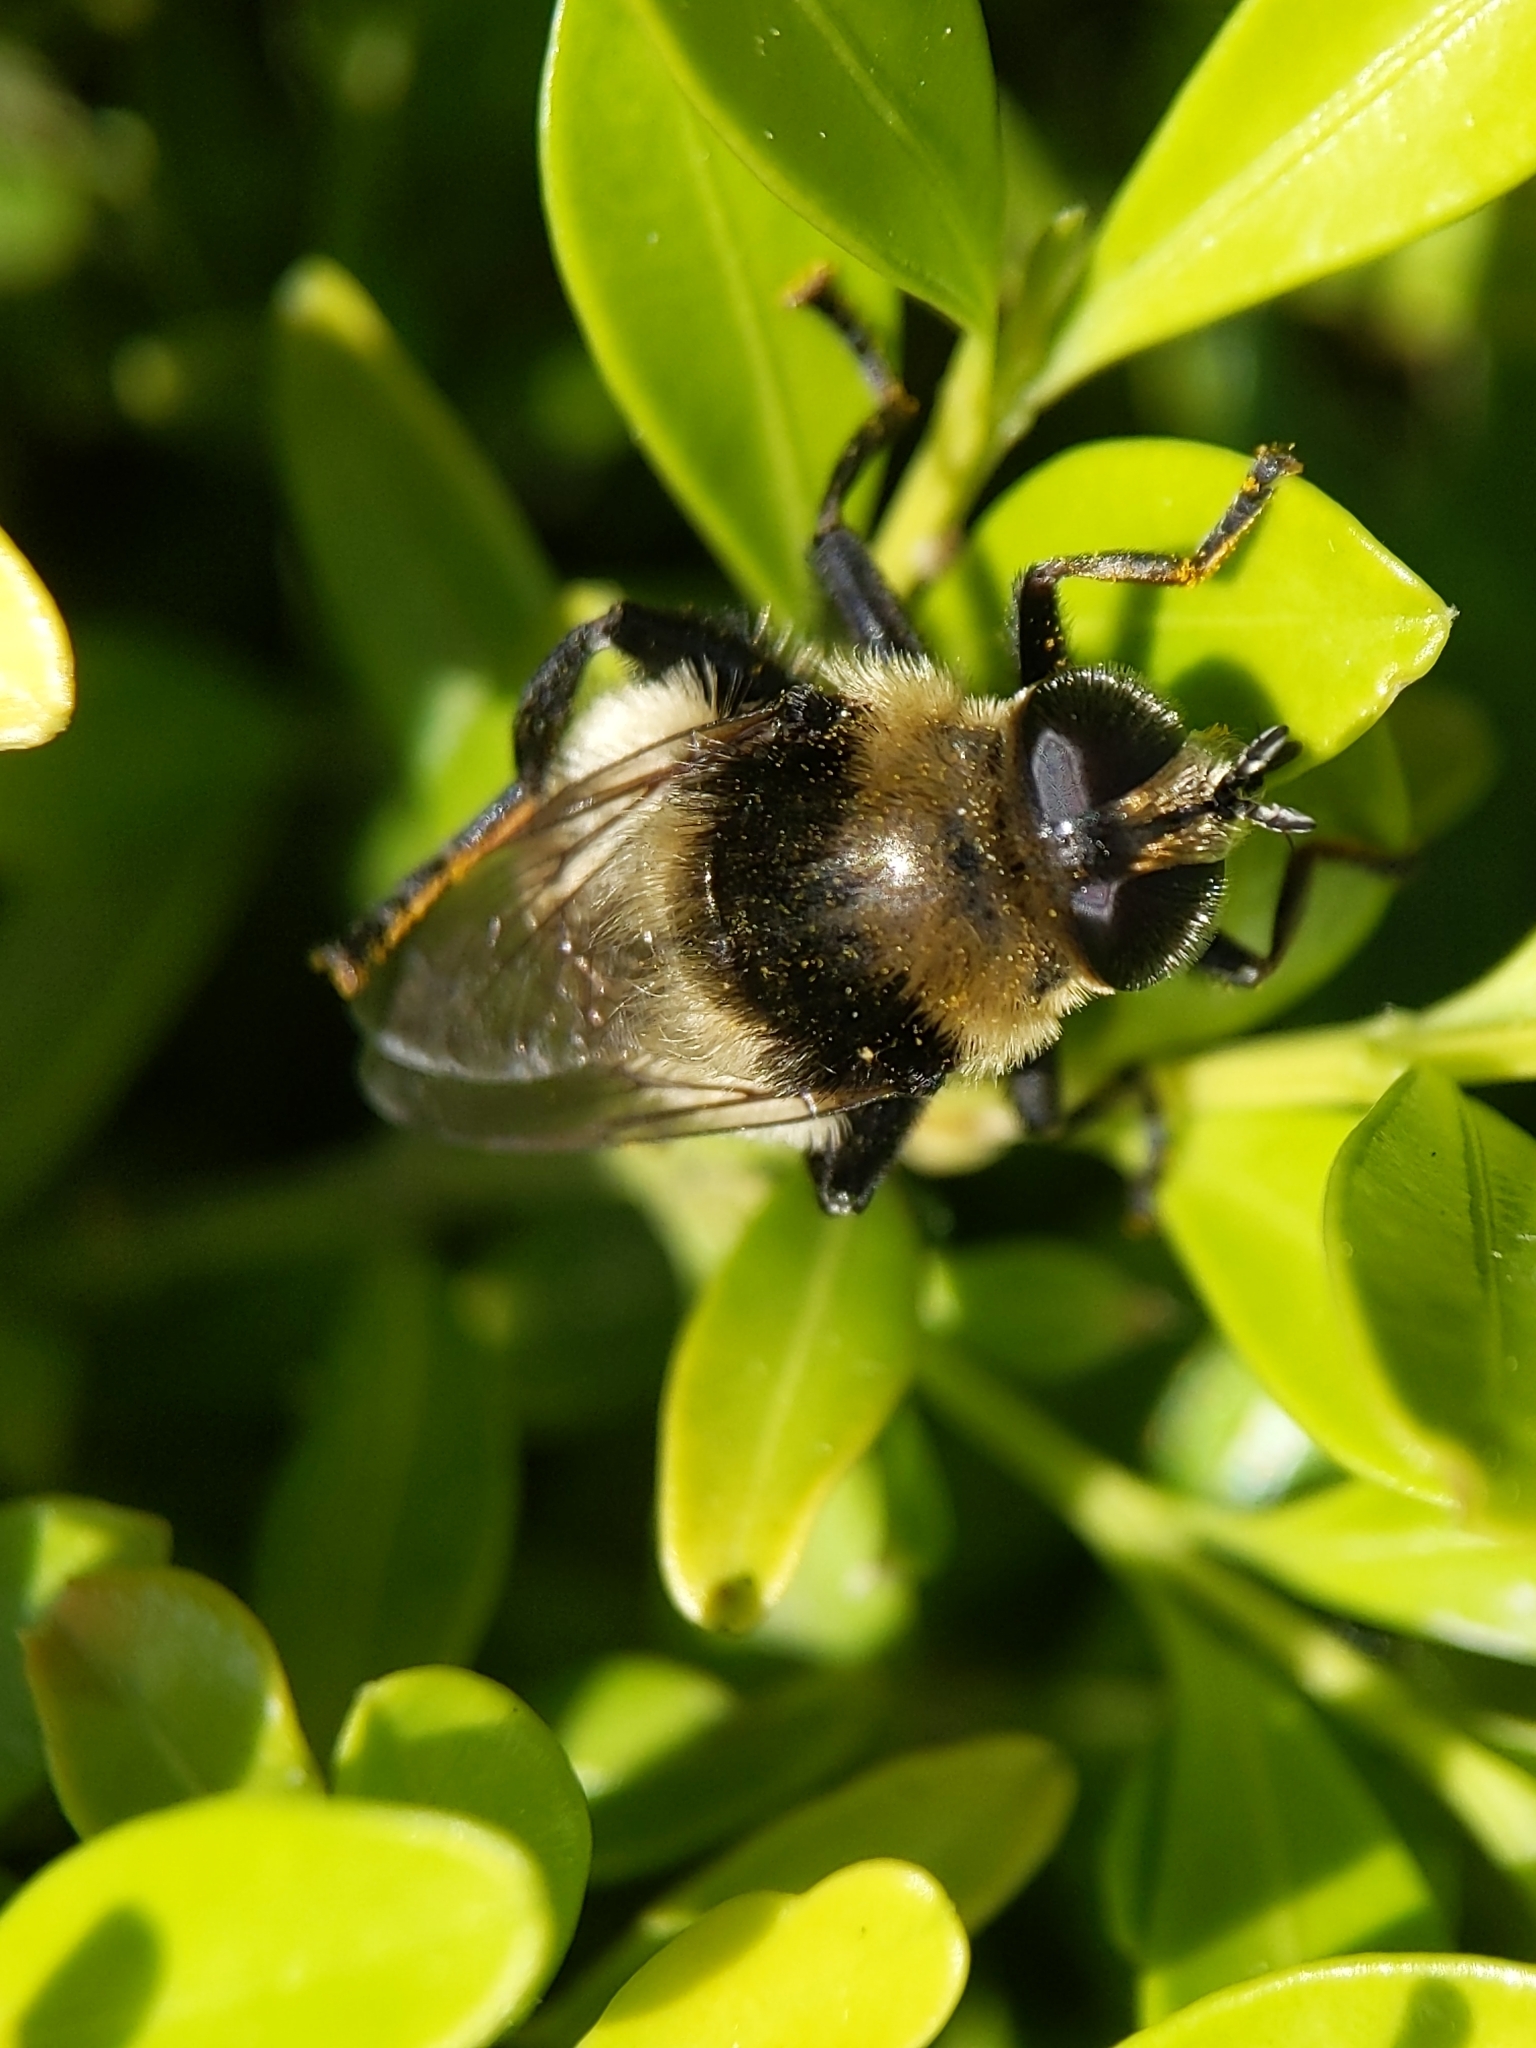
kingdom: Animalia
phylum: Arthropoda
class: Insecta
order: Diptera
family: Syrphidae
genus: Merodon
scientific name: Merodon equestris
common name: Greater bulb-fly
